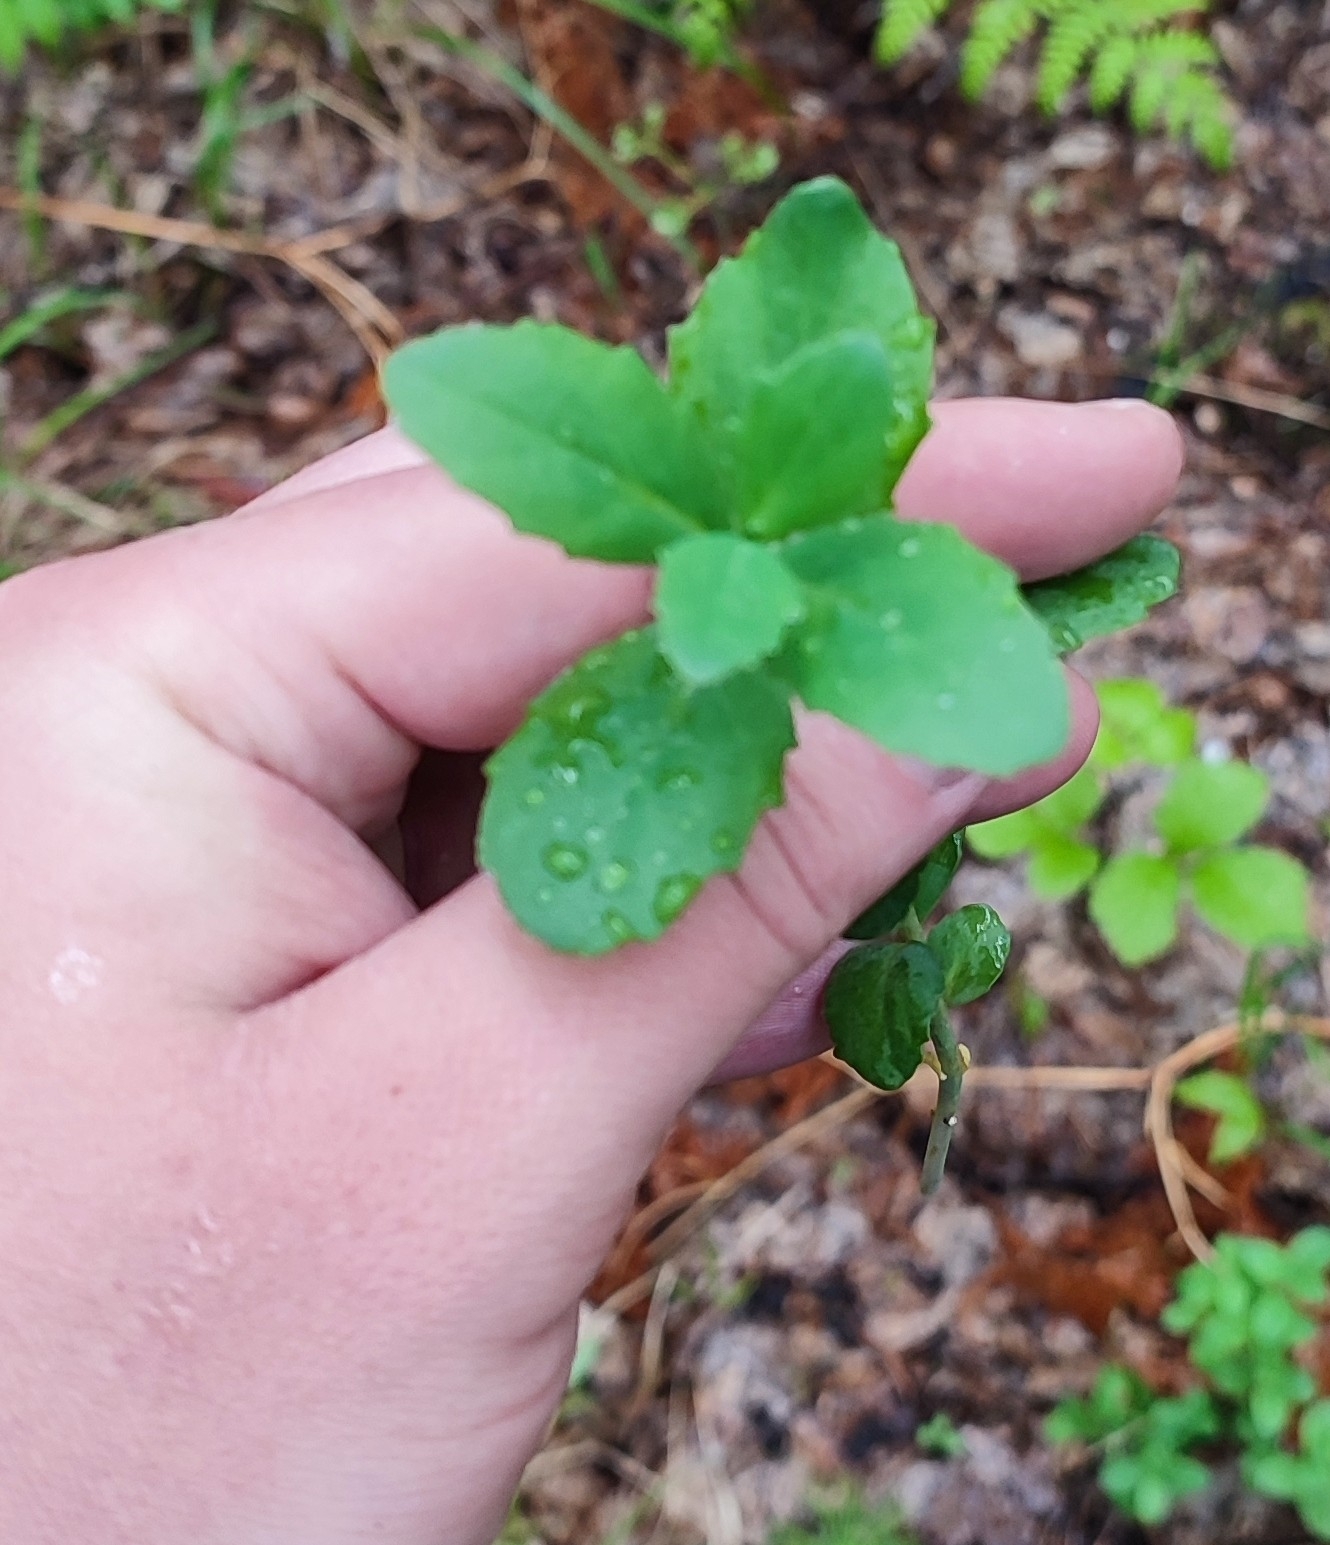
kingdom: Plantae
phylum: Tracheophyta
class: Magnoliopsida
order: Saxifragales
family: Crassulaceae
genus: Hylotelephium
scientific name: Hylotelephium telephium
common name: Live-forever
